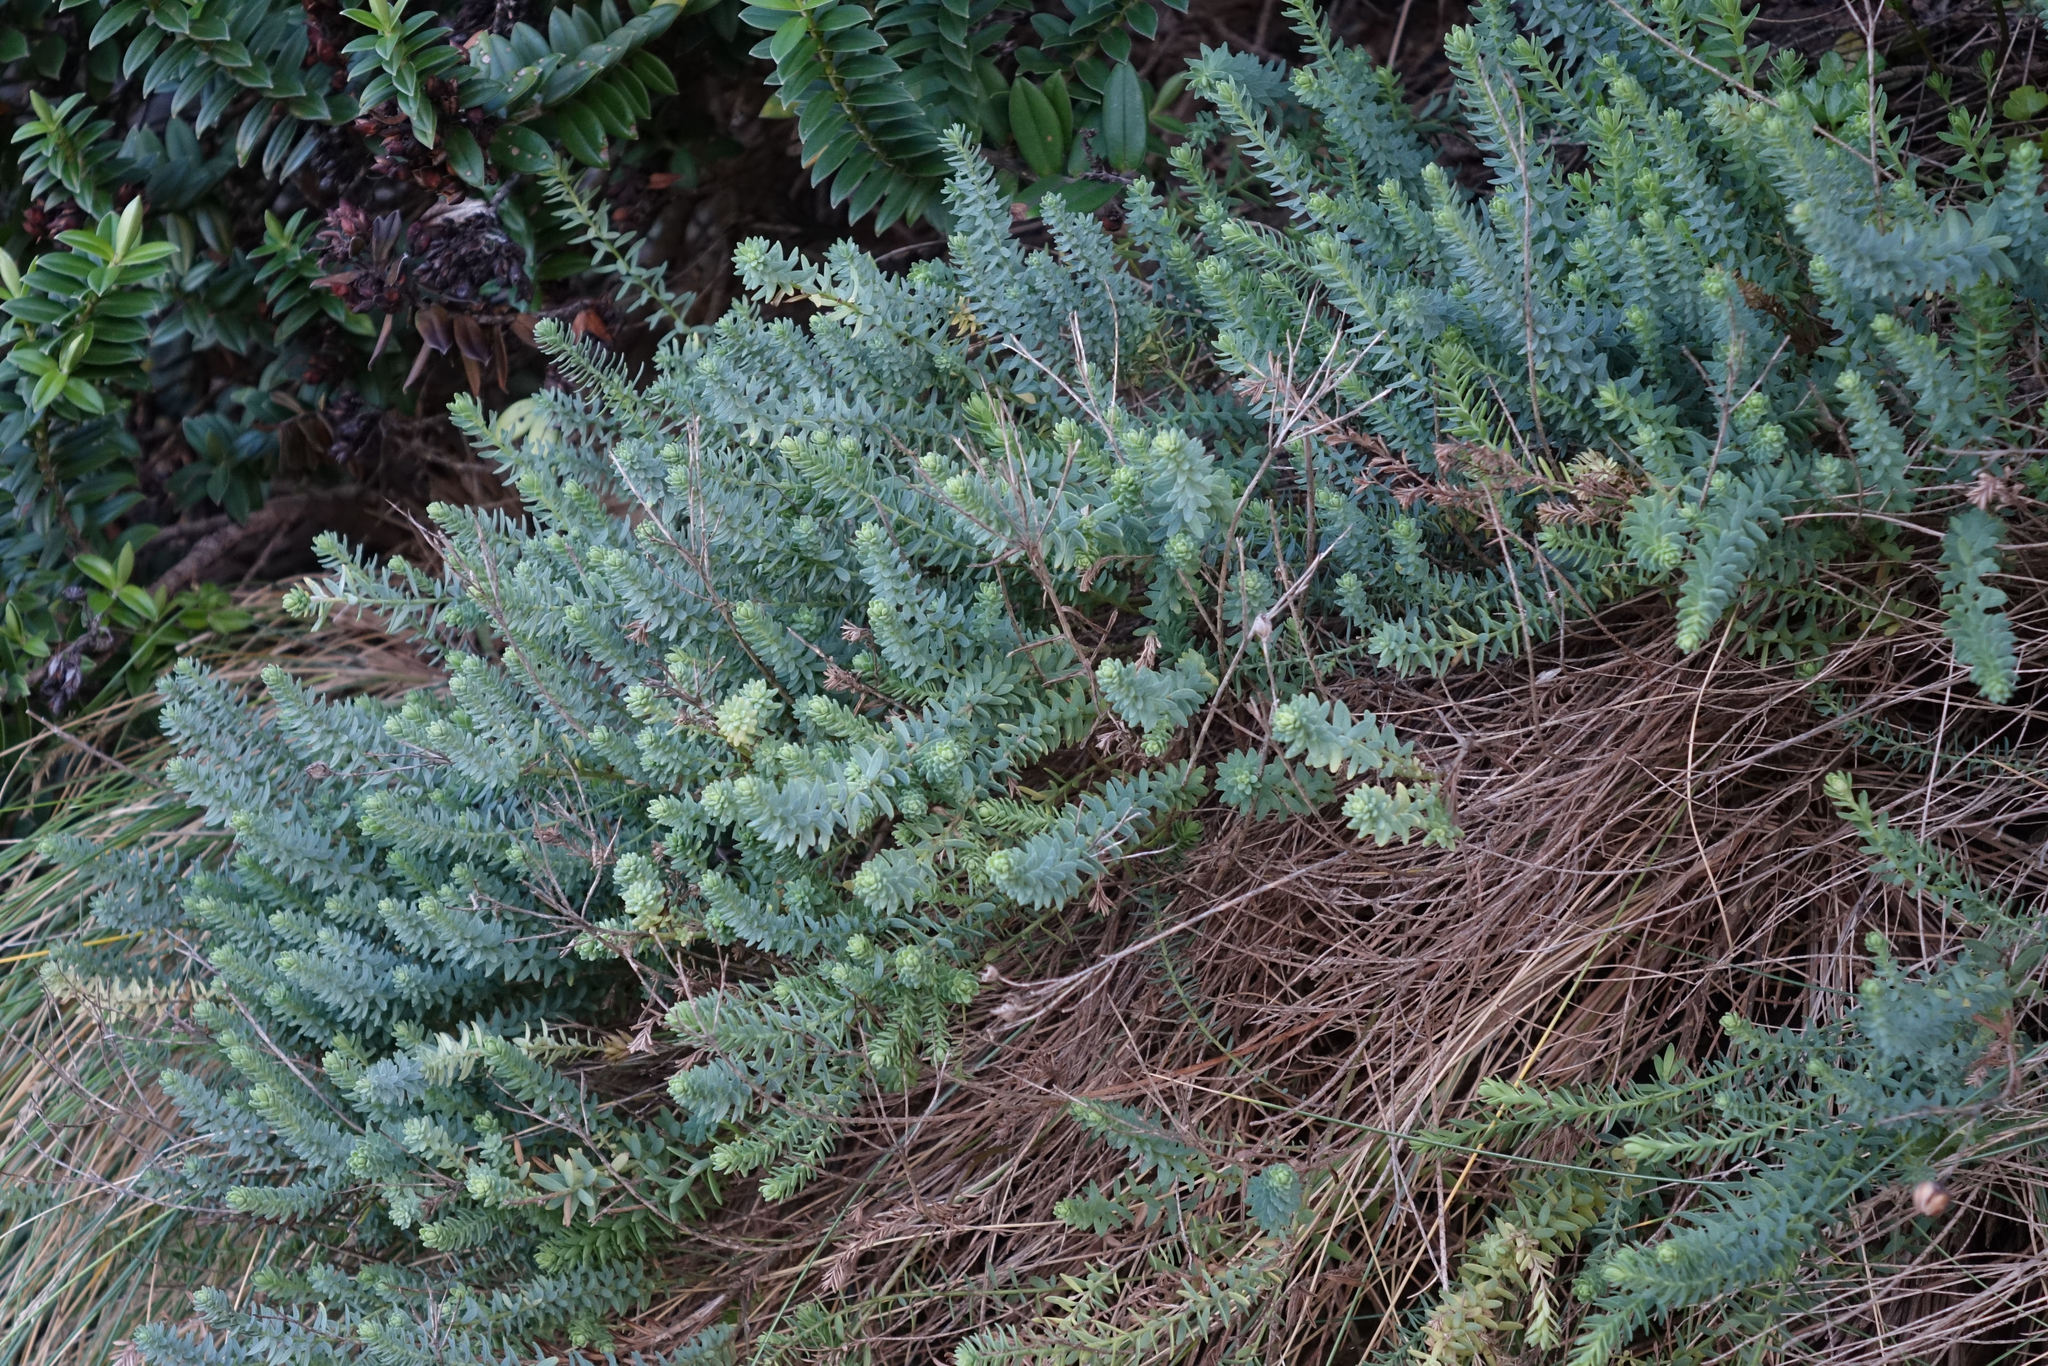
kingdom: Plantae
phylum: Tracheophyta
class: Magnoliopsida
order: Malpighiales
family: Linaceae
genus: Linum
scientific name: Linum monogynum
